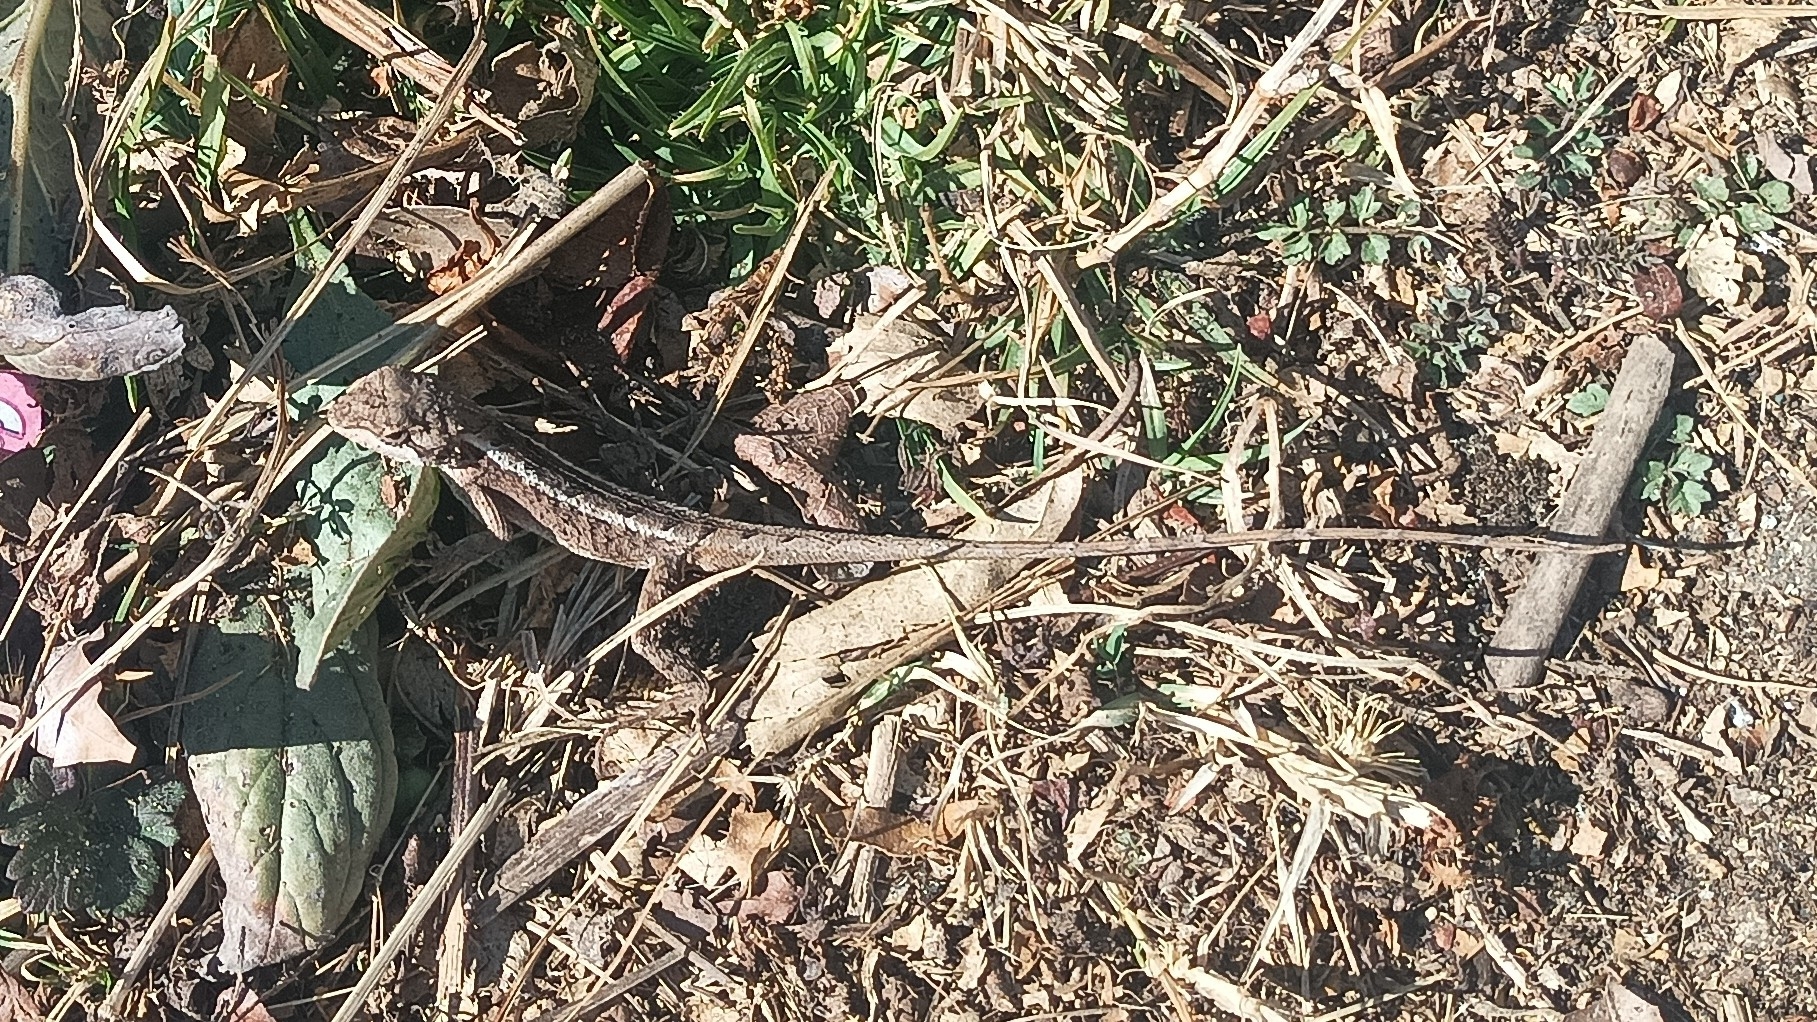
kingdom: Animalia
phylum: Chordata
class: Squamata
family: Agamidae
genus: Japalura
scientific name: Japalura kumaonensis
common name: Kumaon forest agama
